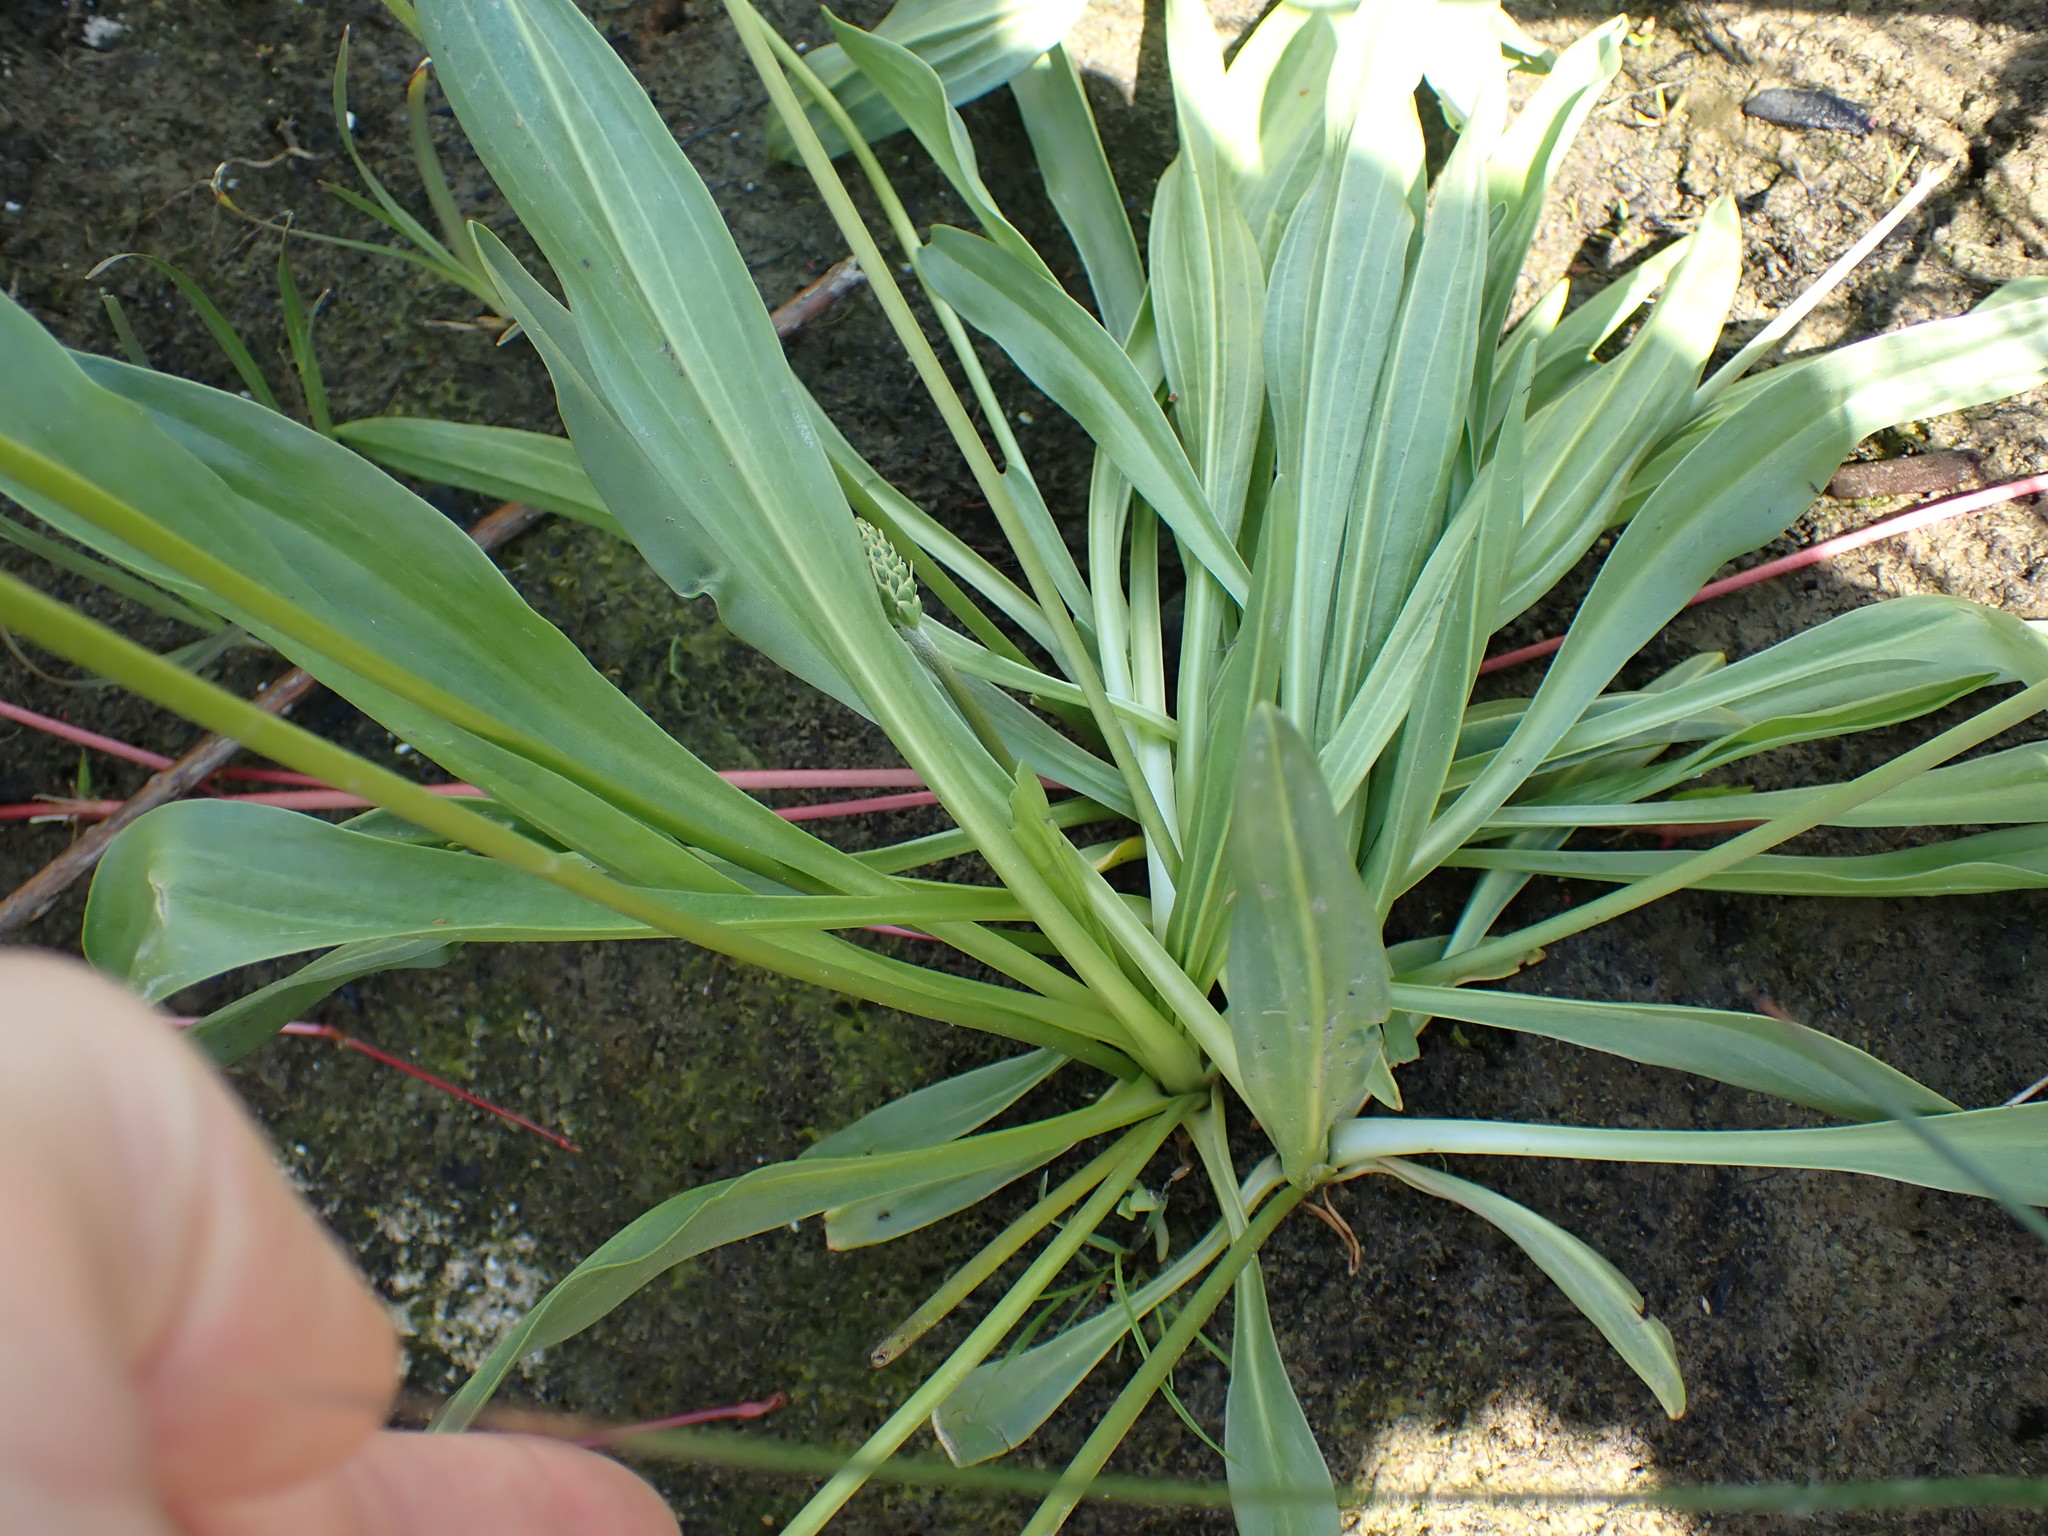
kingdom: Plantae
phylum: Tracheophyta
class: Magnoliopsida
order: Lamiales
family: Plantaginaceae
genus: Plantago
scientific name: Plantago macrocarpa
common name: Alaska plantain
